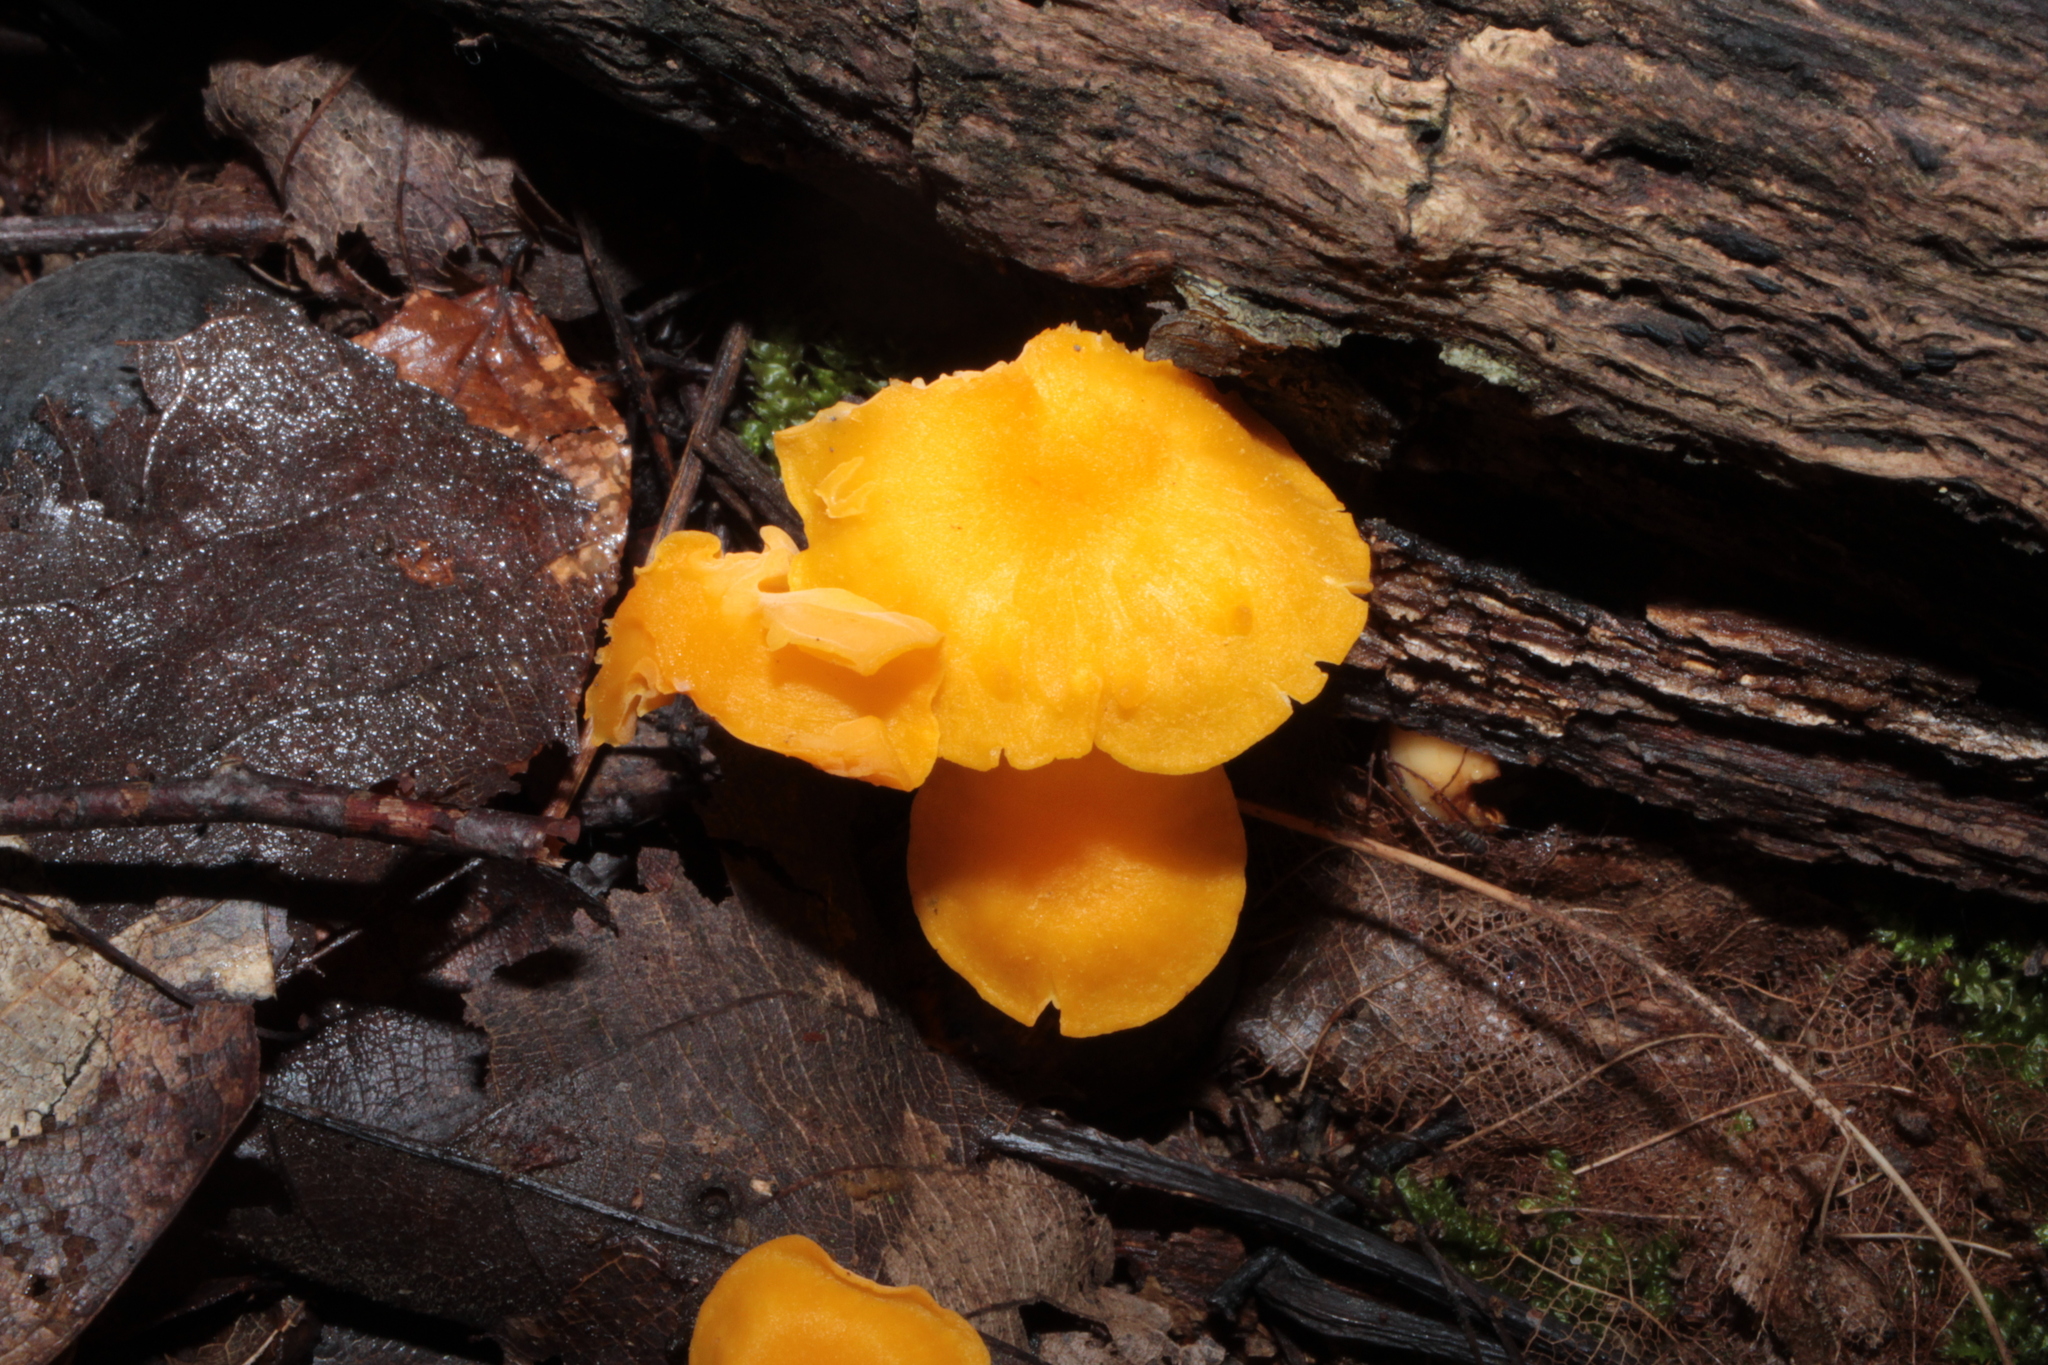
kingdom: Fungi
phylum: Basidiomycota
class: Agaricomycetes
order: Cantharellales
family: Hydnaceae
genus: Cantharellus
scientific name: Cantharellus minor
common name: Small chanterelle
